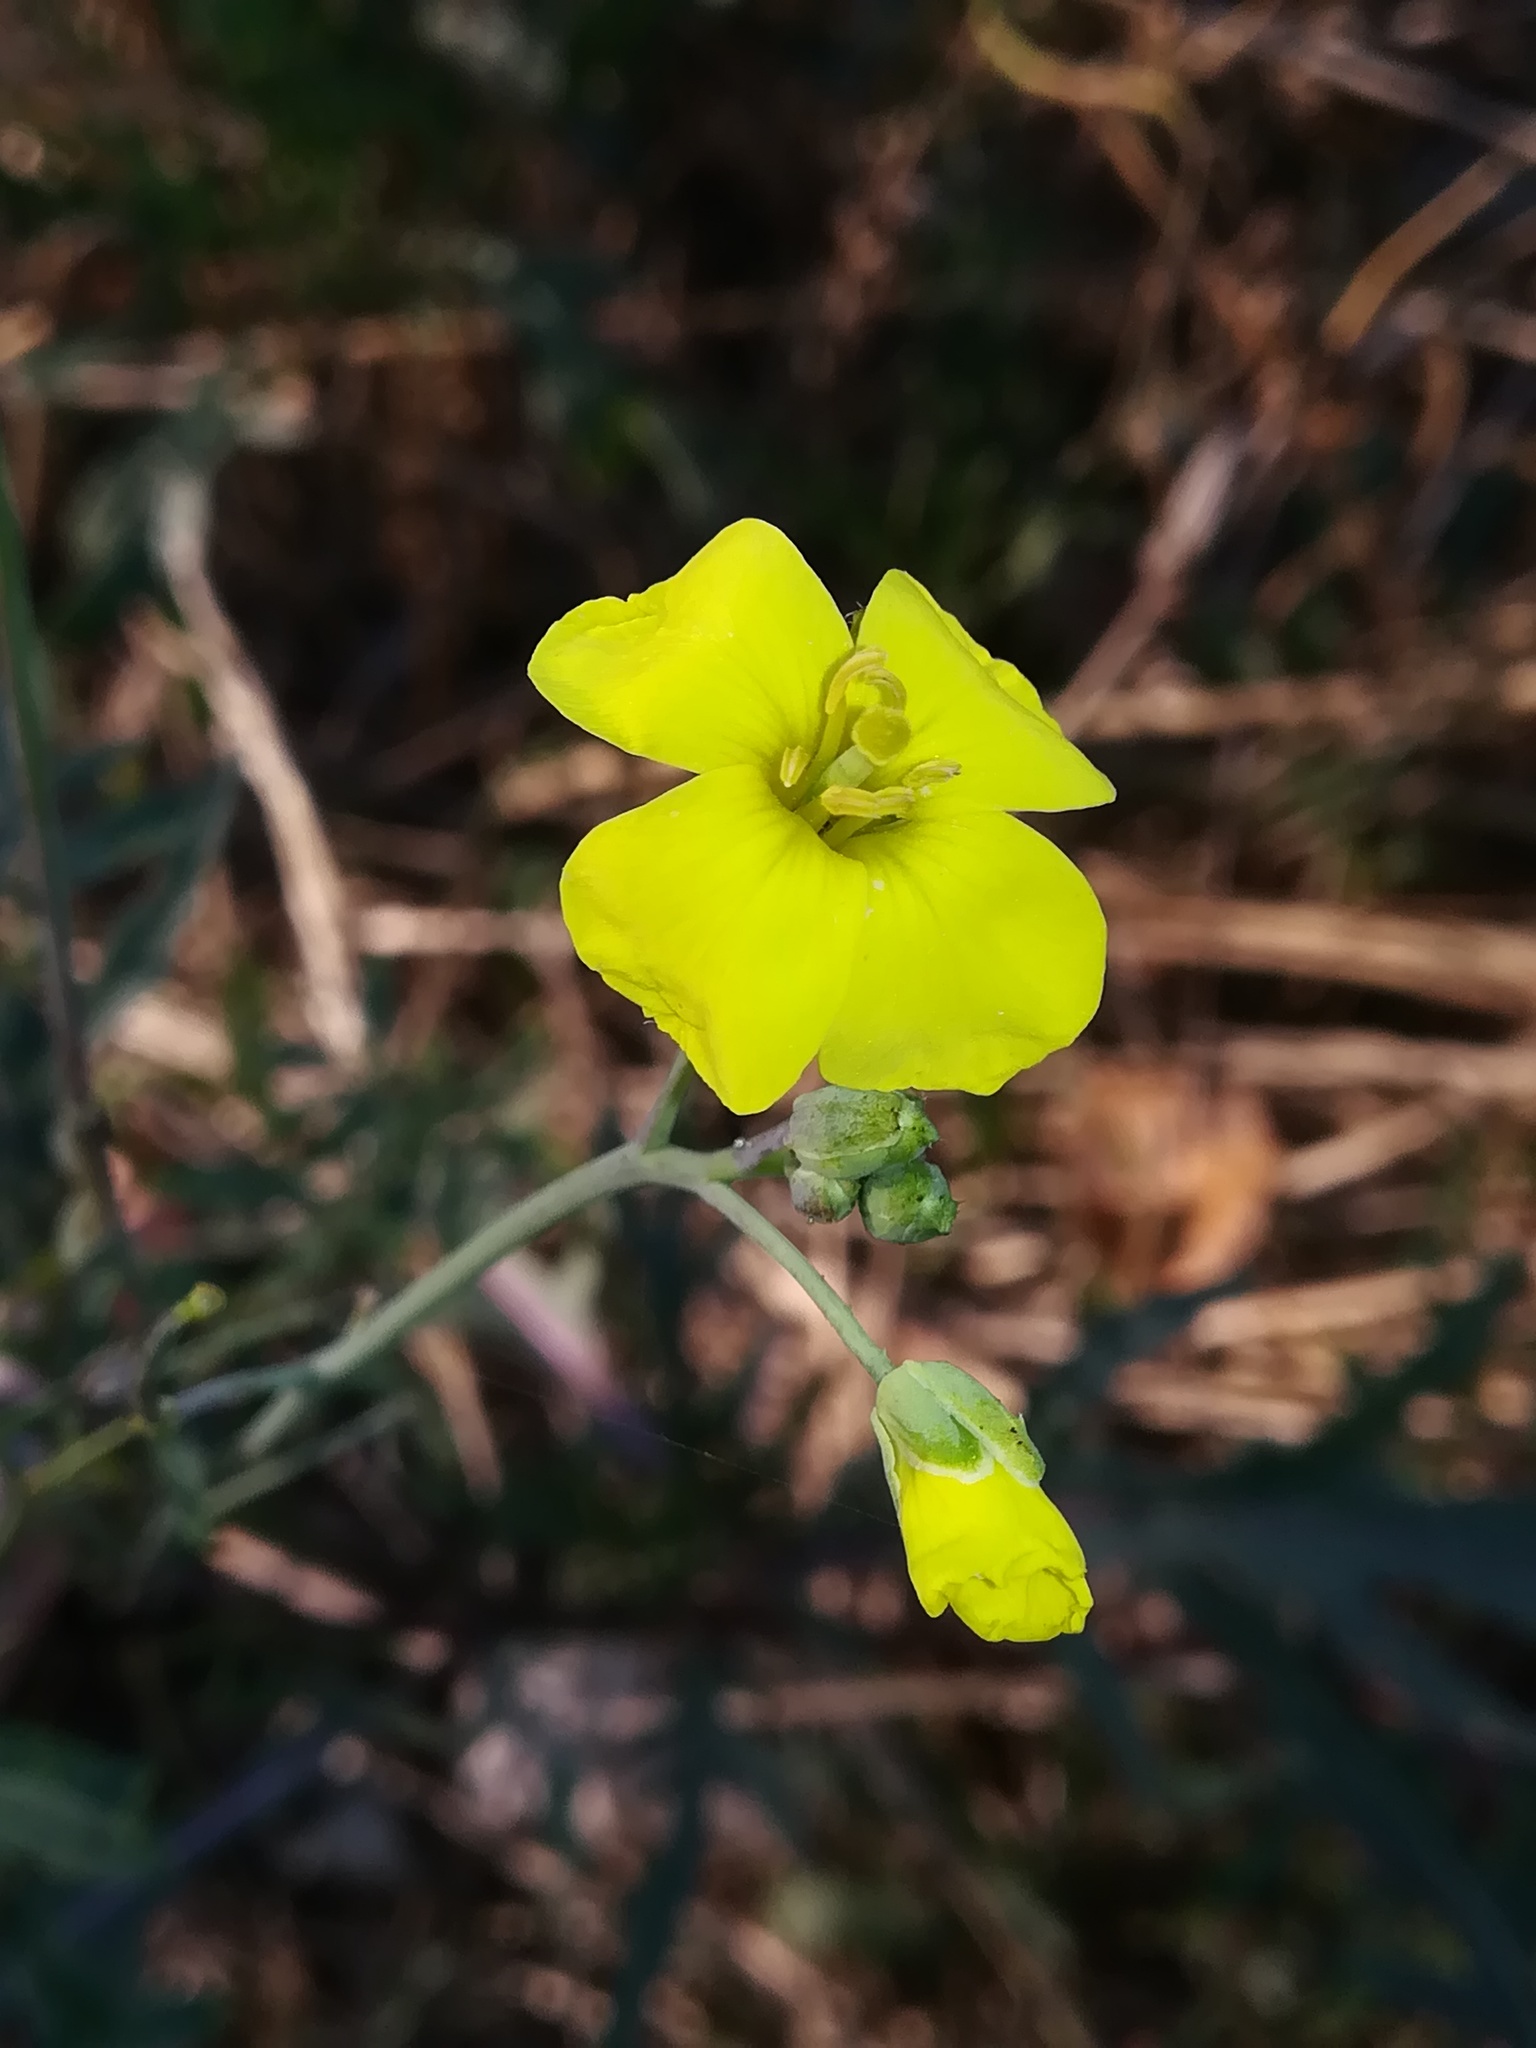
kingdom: Plantae
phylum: Tracheophyta
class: Magnoliopsida
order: Brassicales
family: Brassicaceae
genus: Diplotaxis
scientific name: Diplotaxis tenuifolia
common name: Perennial wall-rocket
